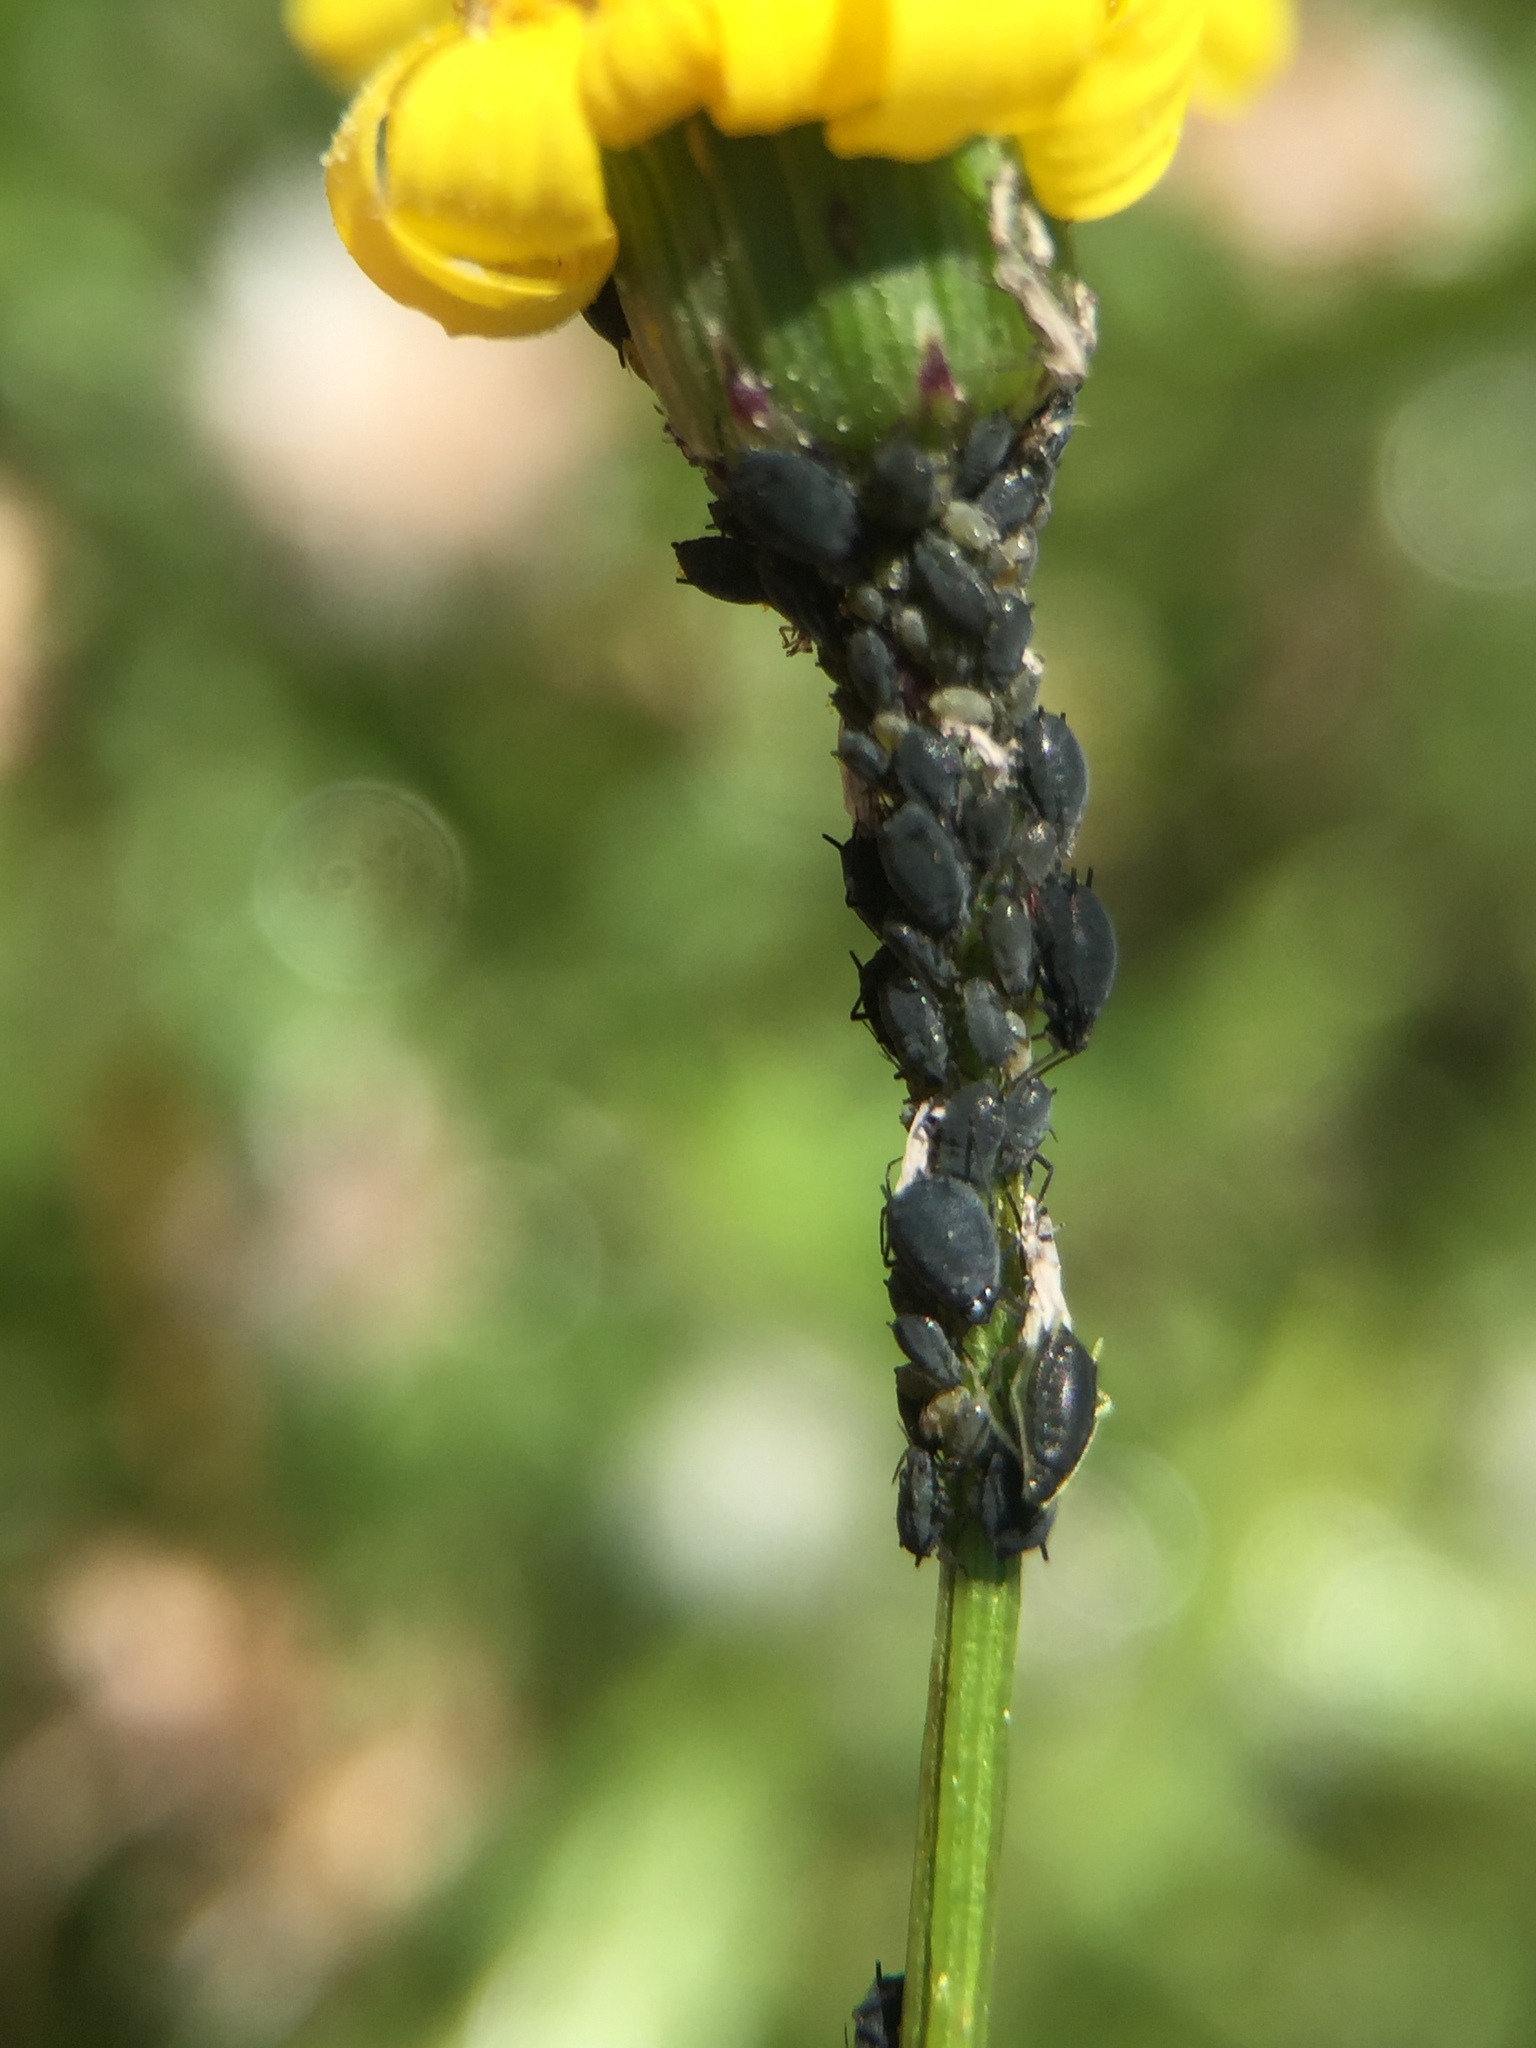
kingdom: Animalia
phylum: Arthropoda
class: Insecta
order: Hemiptera
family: Aphididae
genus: Aphis
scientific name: Aphis lugentis
